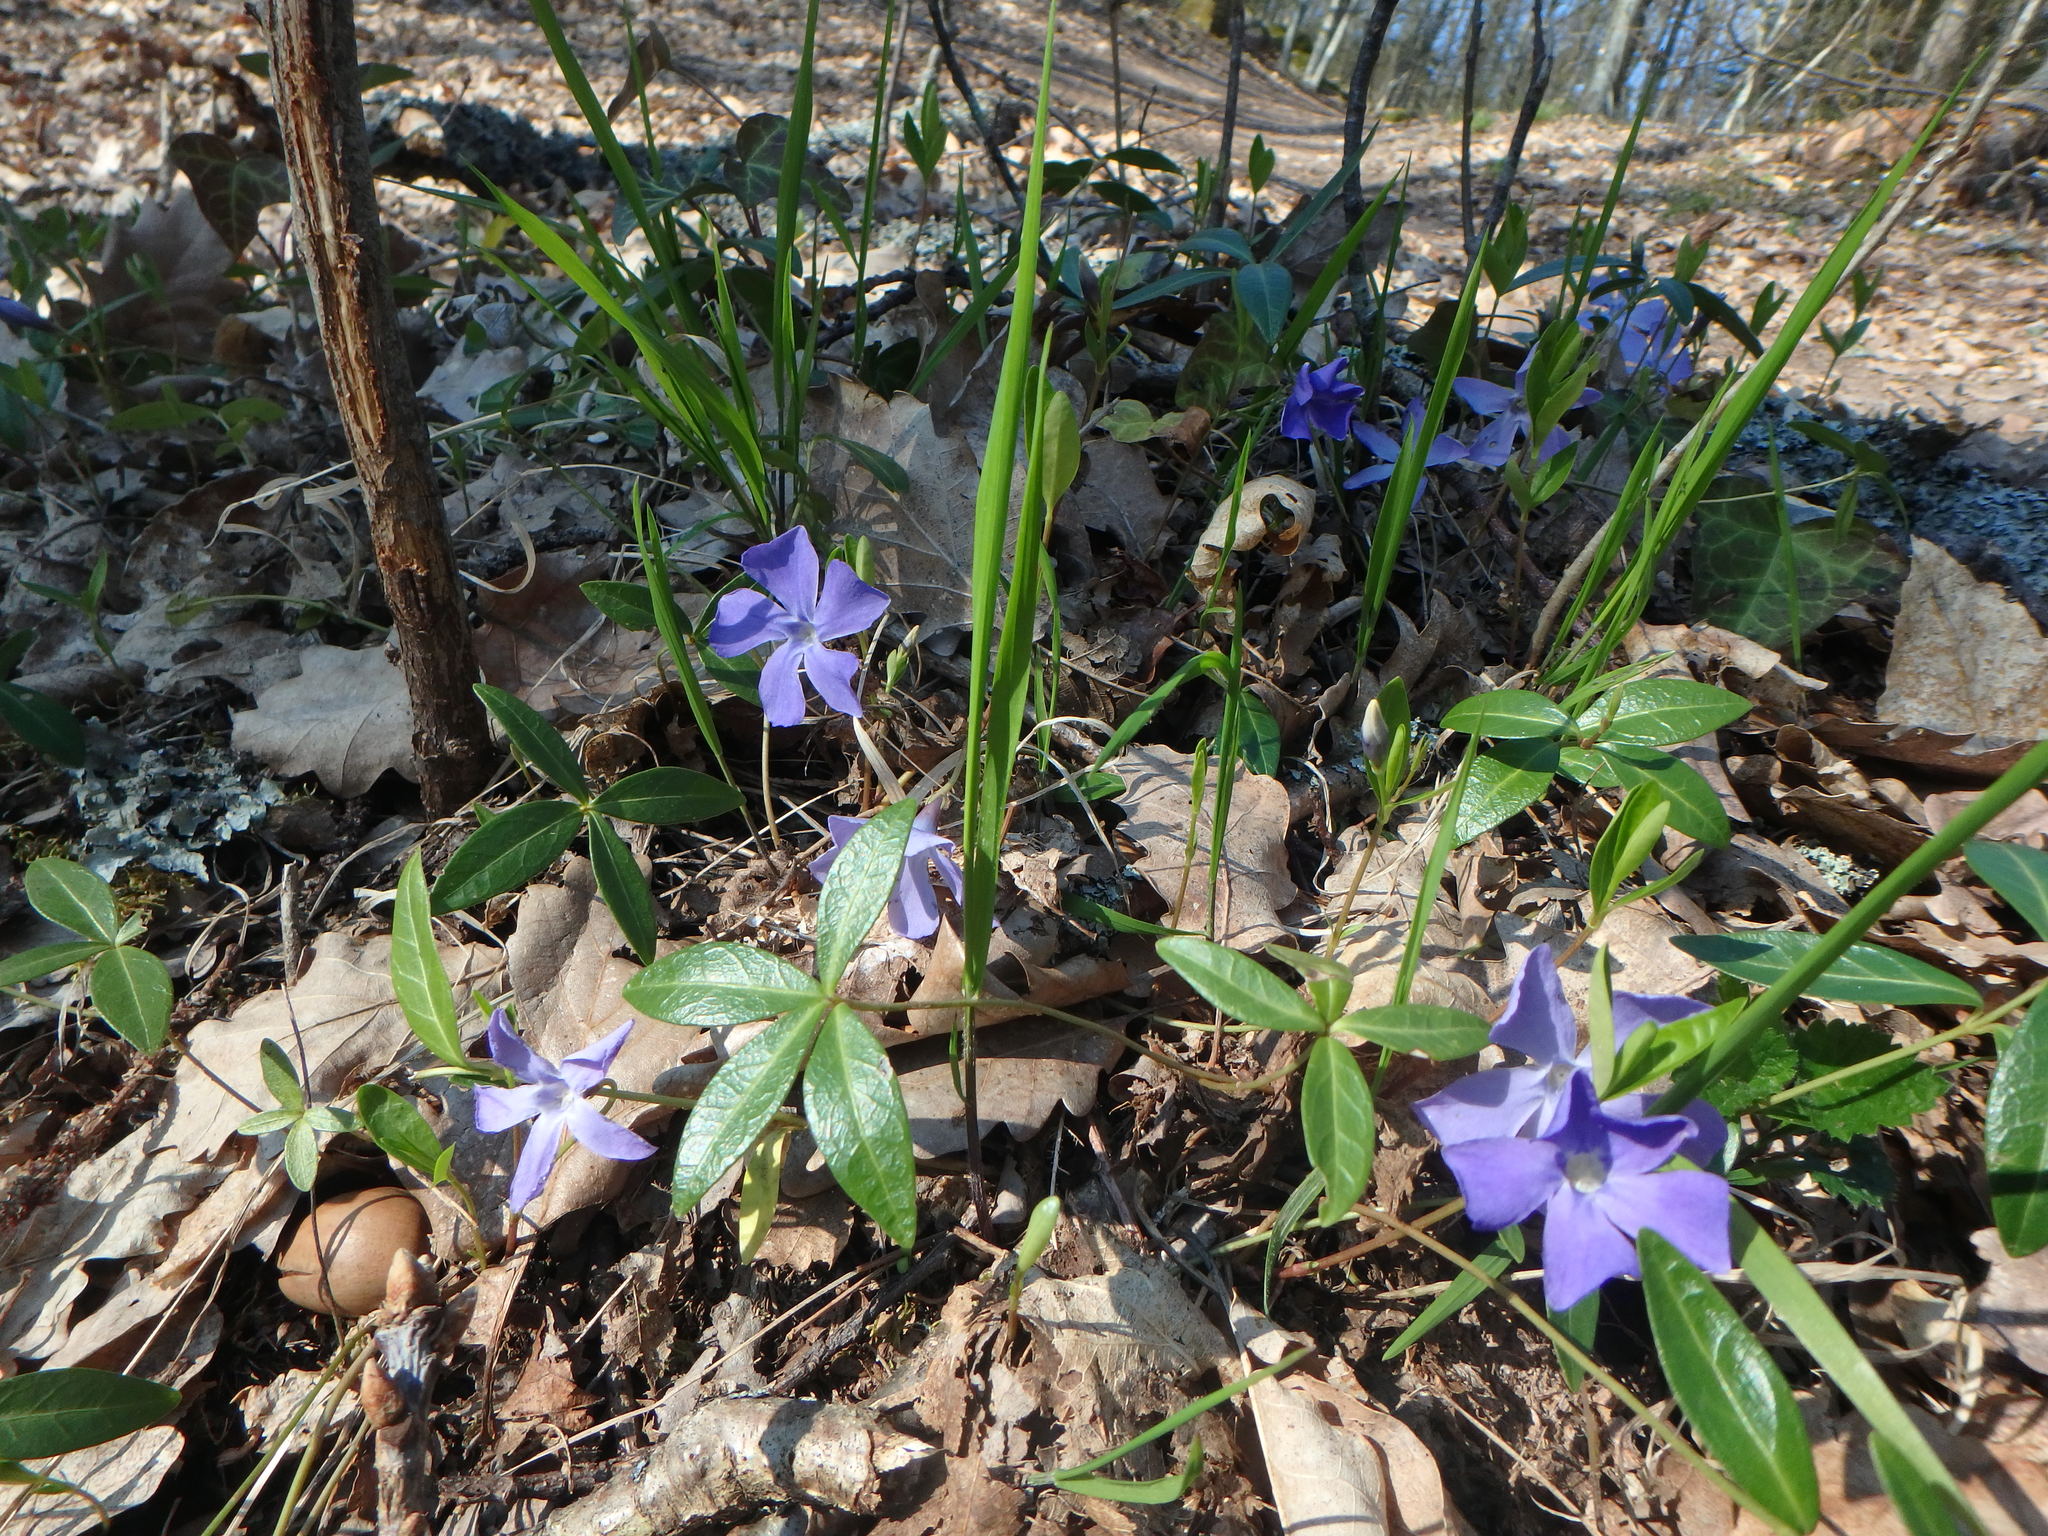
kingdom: Plantae
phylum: Tracheophyta
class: Magnoliopsida
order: Gentianales
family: Apocynaceae
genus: Vinca
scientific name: Vinca minor
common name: Lesser periwinkle
